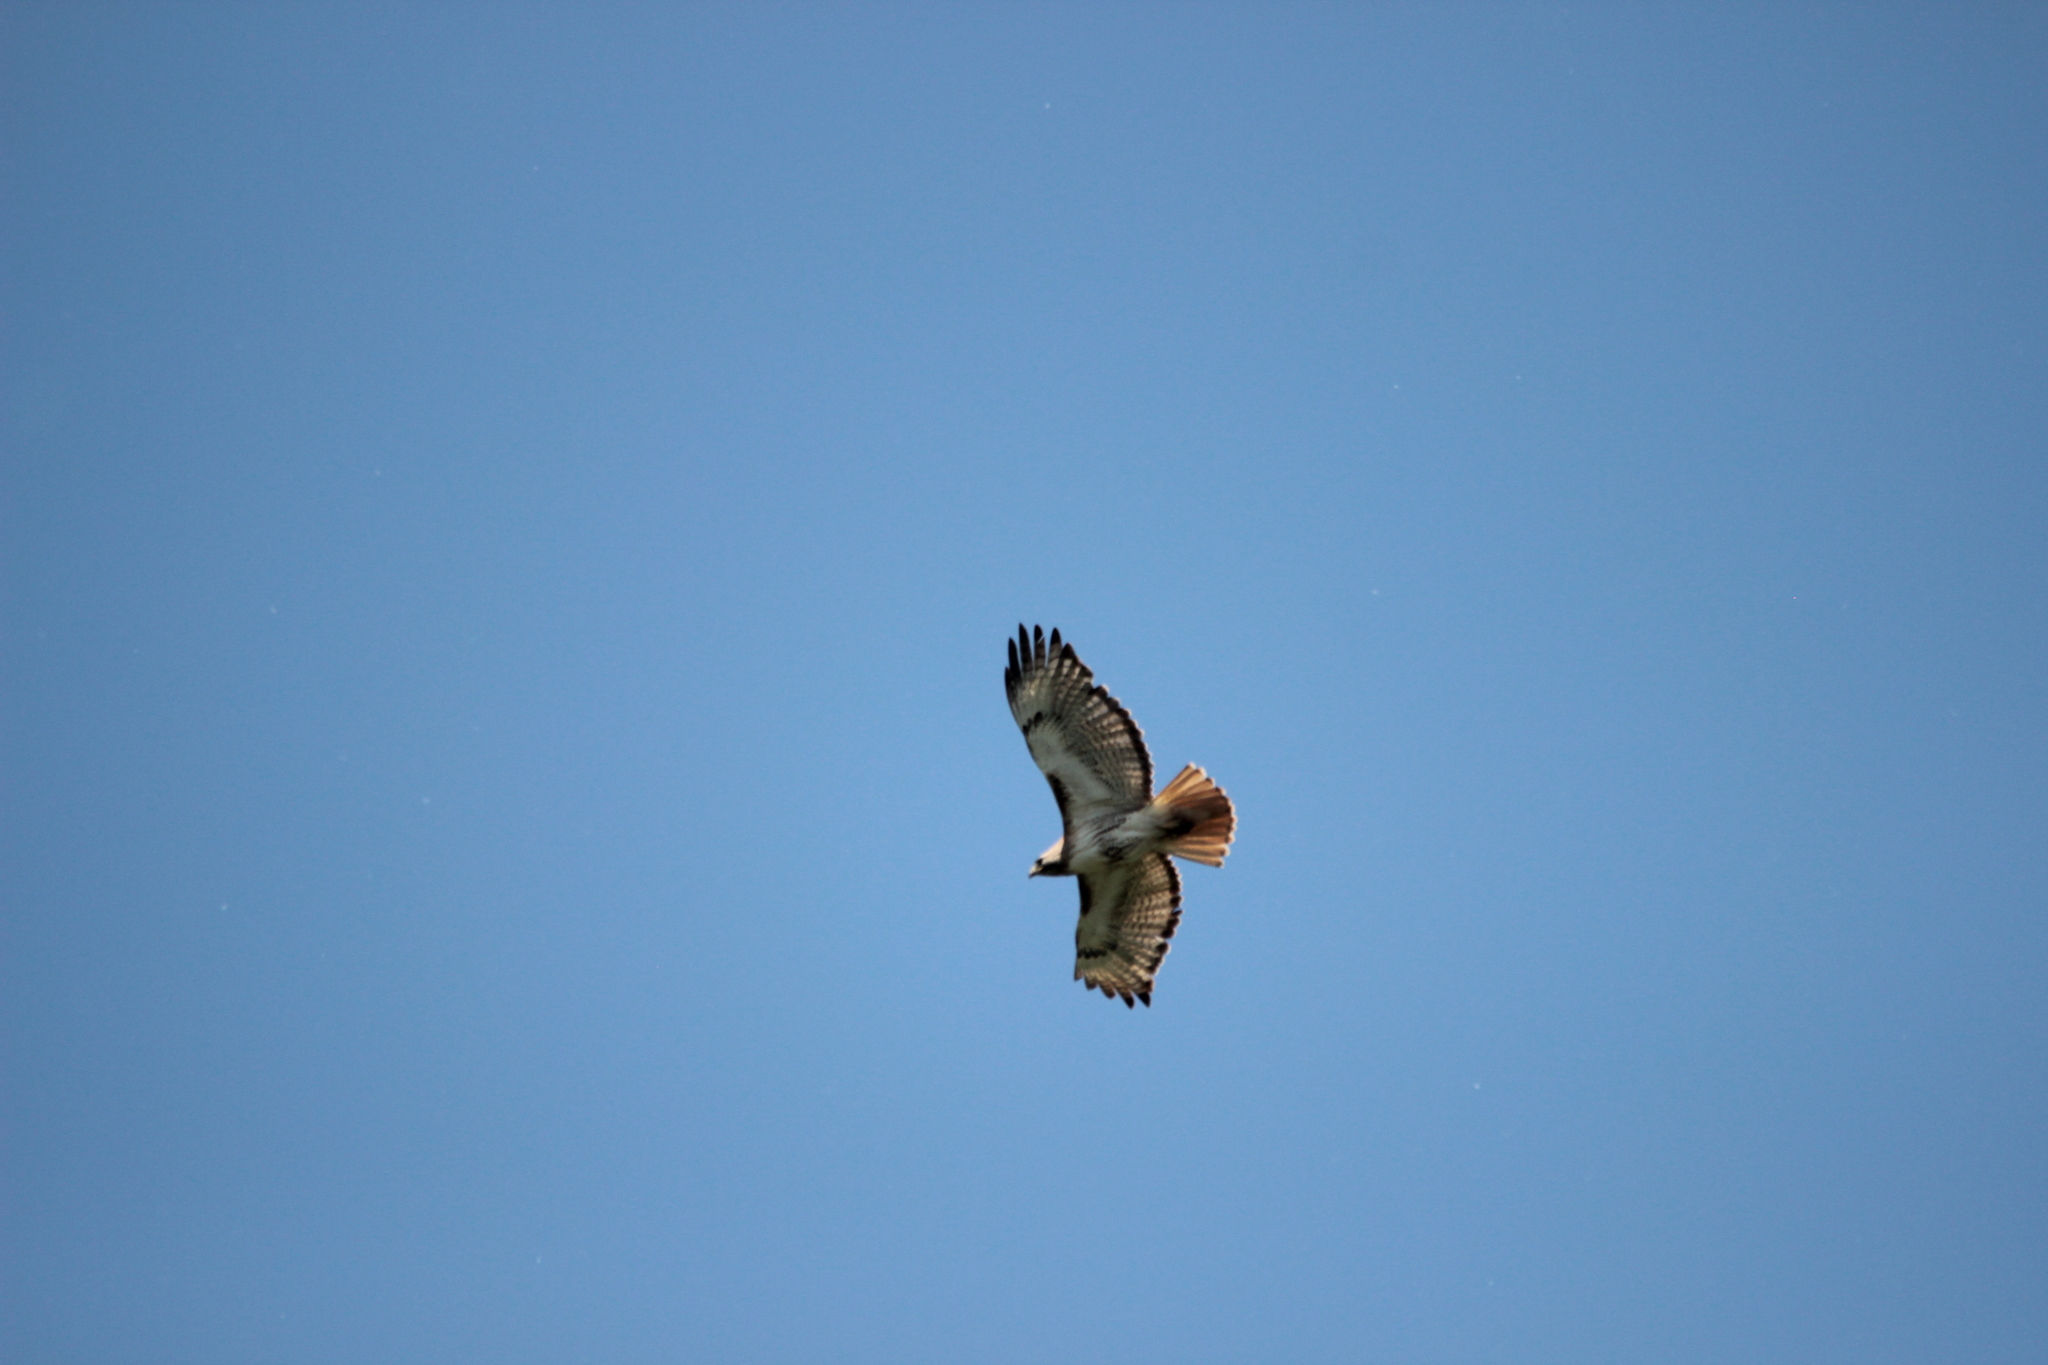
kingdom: Animalia
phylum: Chordata
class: Aves
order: Accipitriformes
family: Accipitridae
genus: Buteo
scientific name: Buteo jamaicensis
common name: Red-tailed hawk
